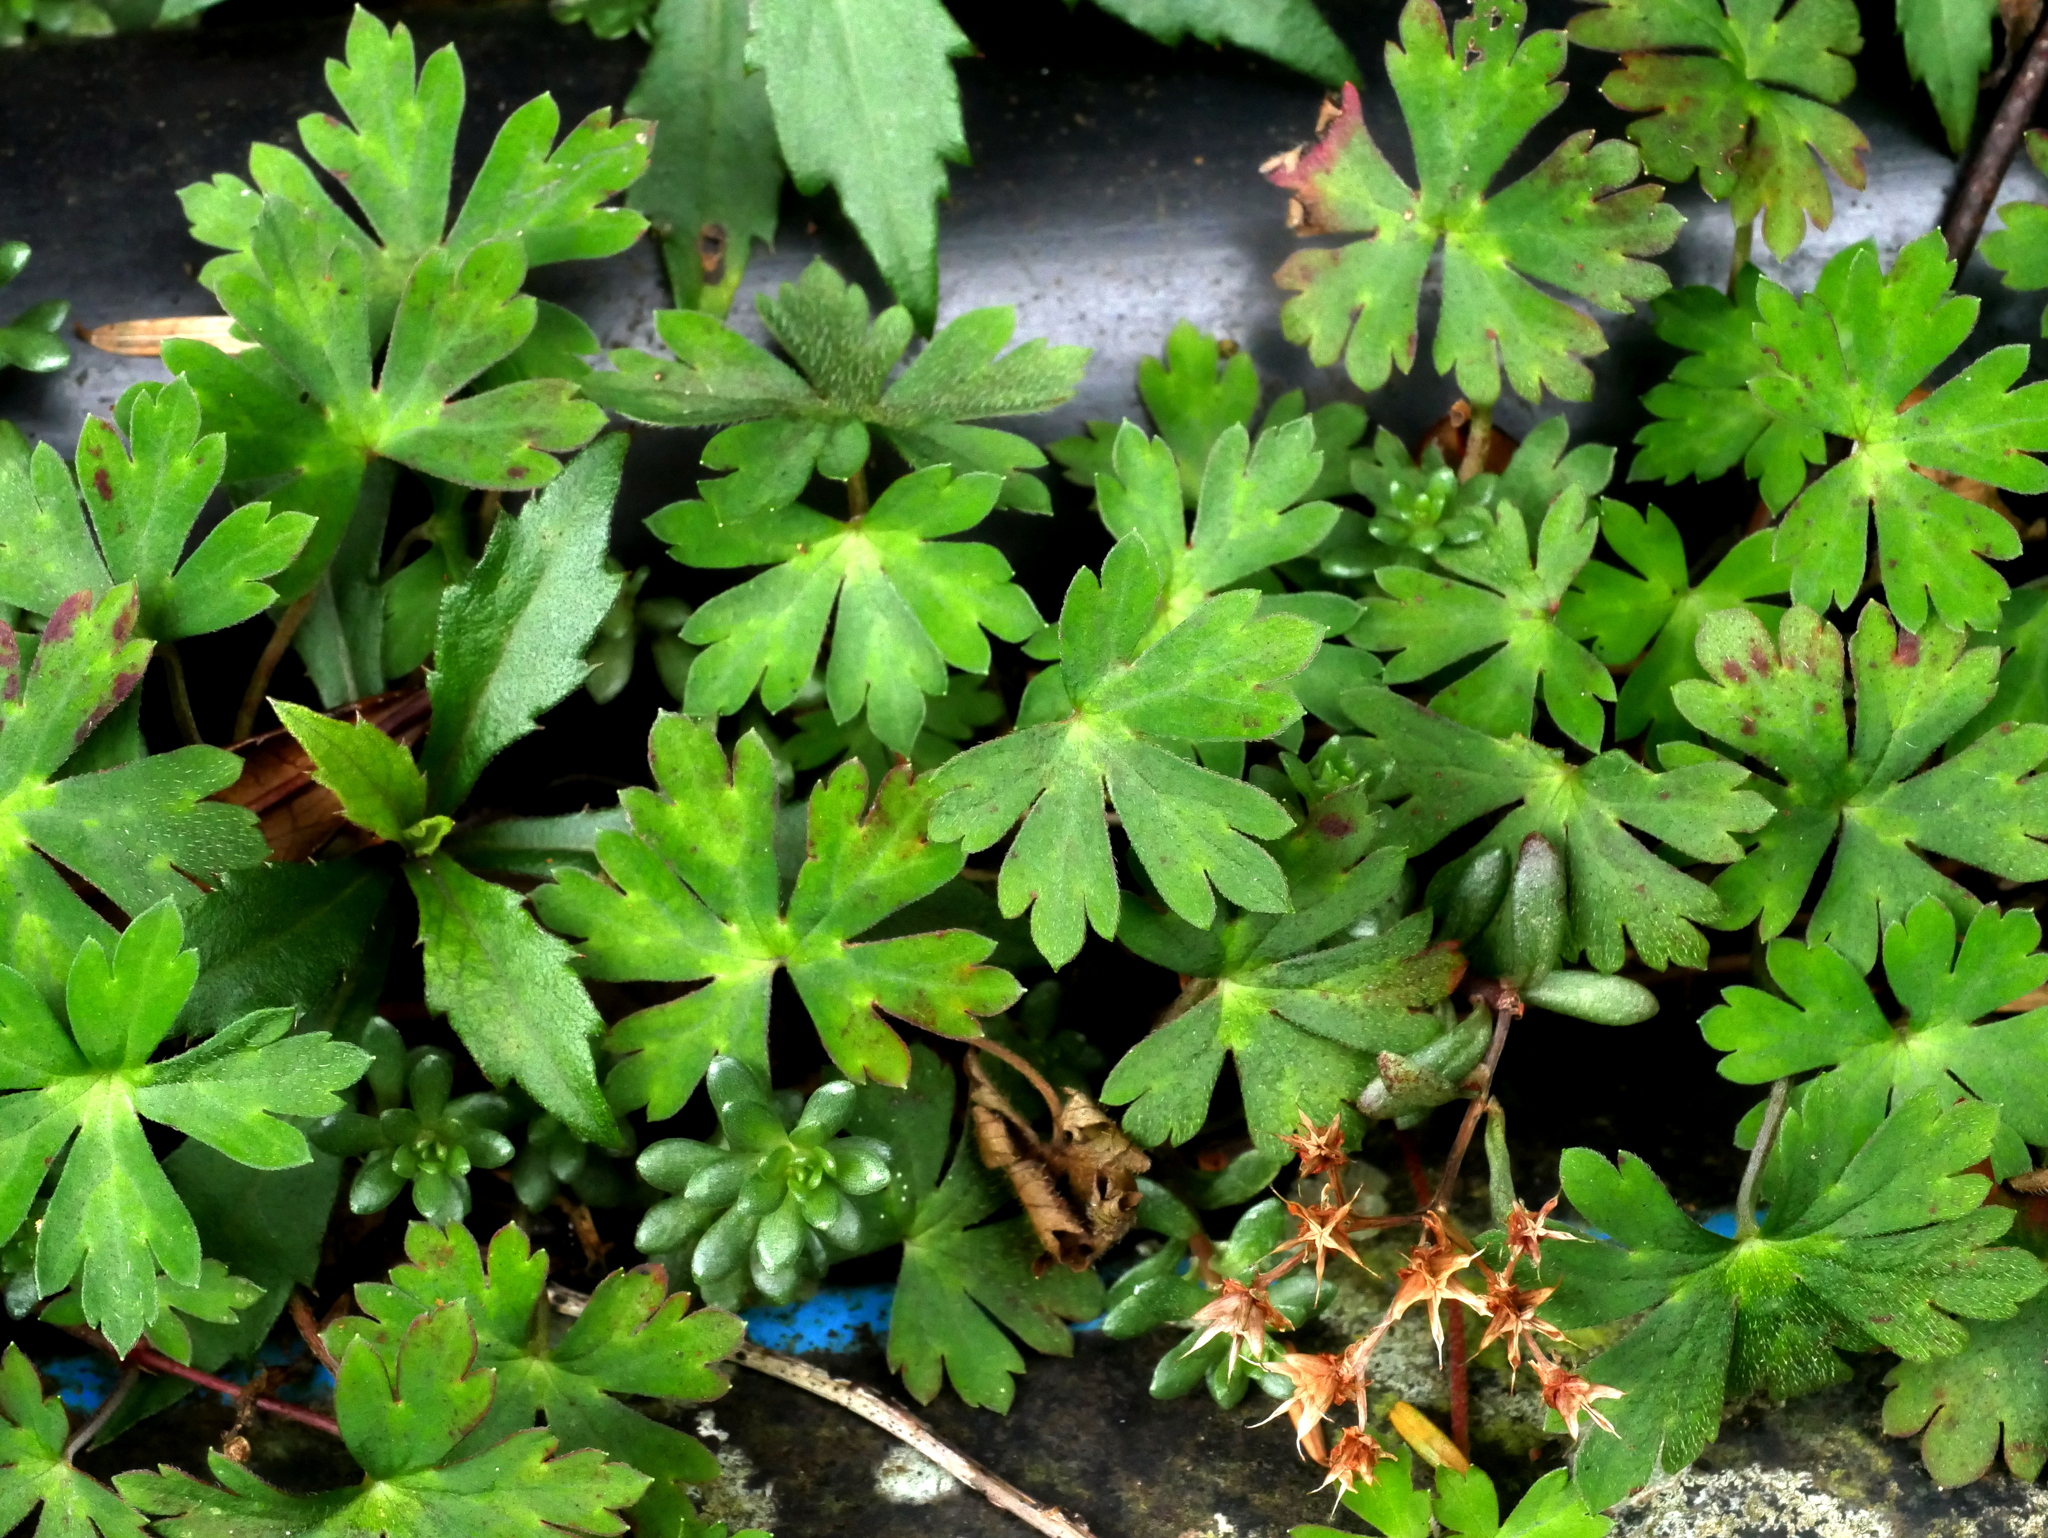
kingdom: Plantae
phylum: Tracheophyta
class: Magnoliopsida
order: Geraniales
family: Geraniaceae
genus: Geranium
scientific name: Geranium suzukii
